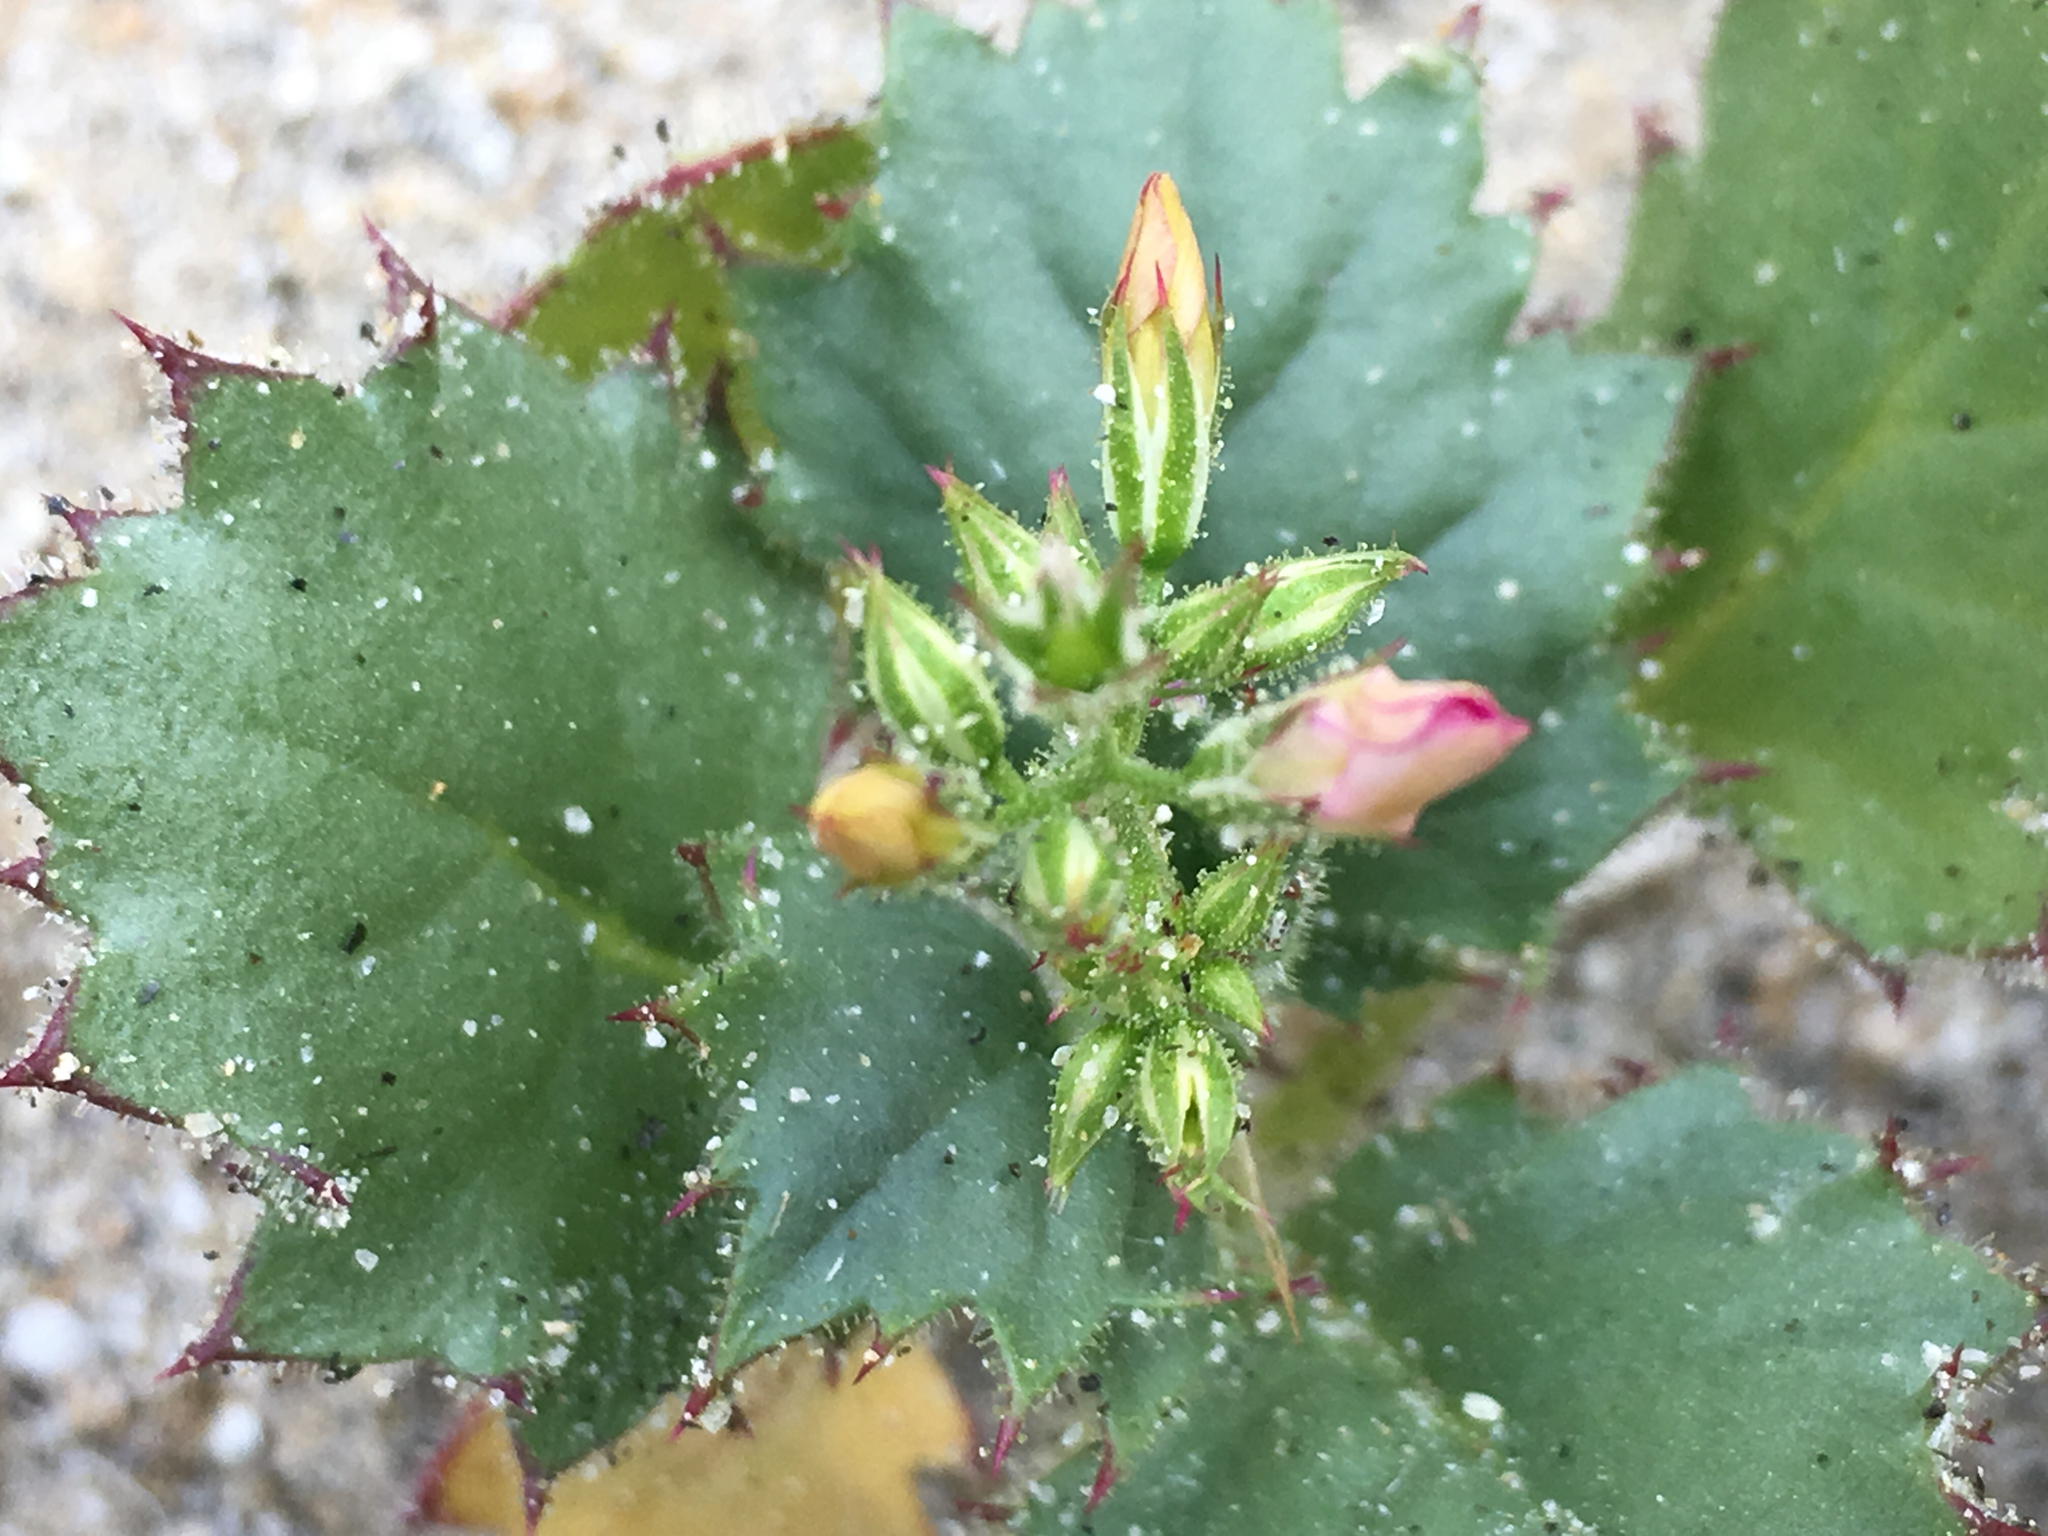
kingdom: Plantae
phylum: Tracheophyta
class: Magnoliopsida
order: Ericales
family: Polemoniaceae
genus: Aliciella
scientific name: Aliciella latifolia
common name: Broad-leaf gilia
